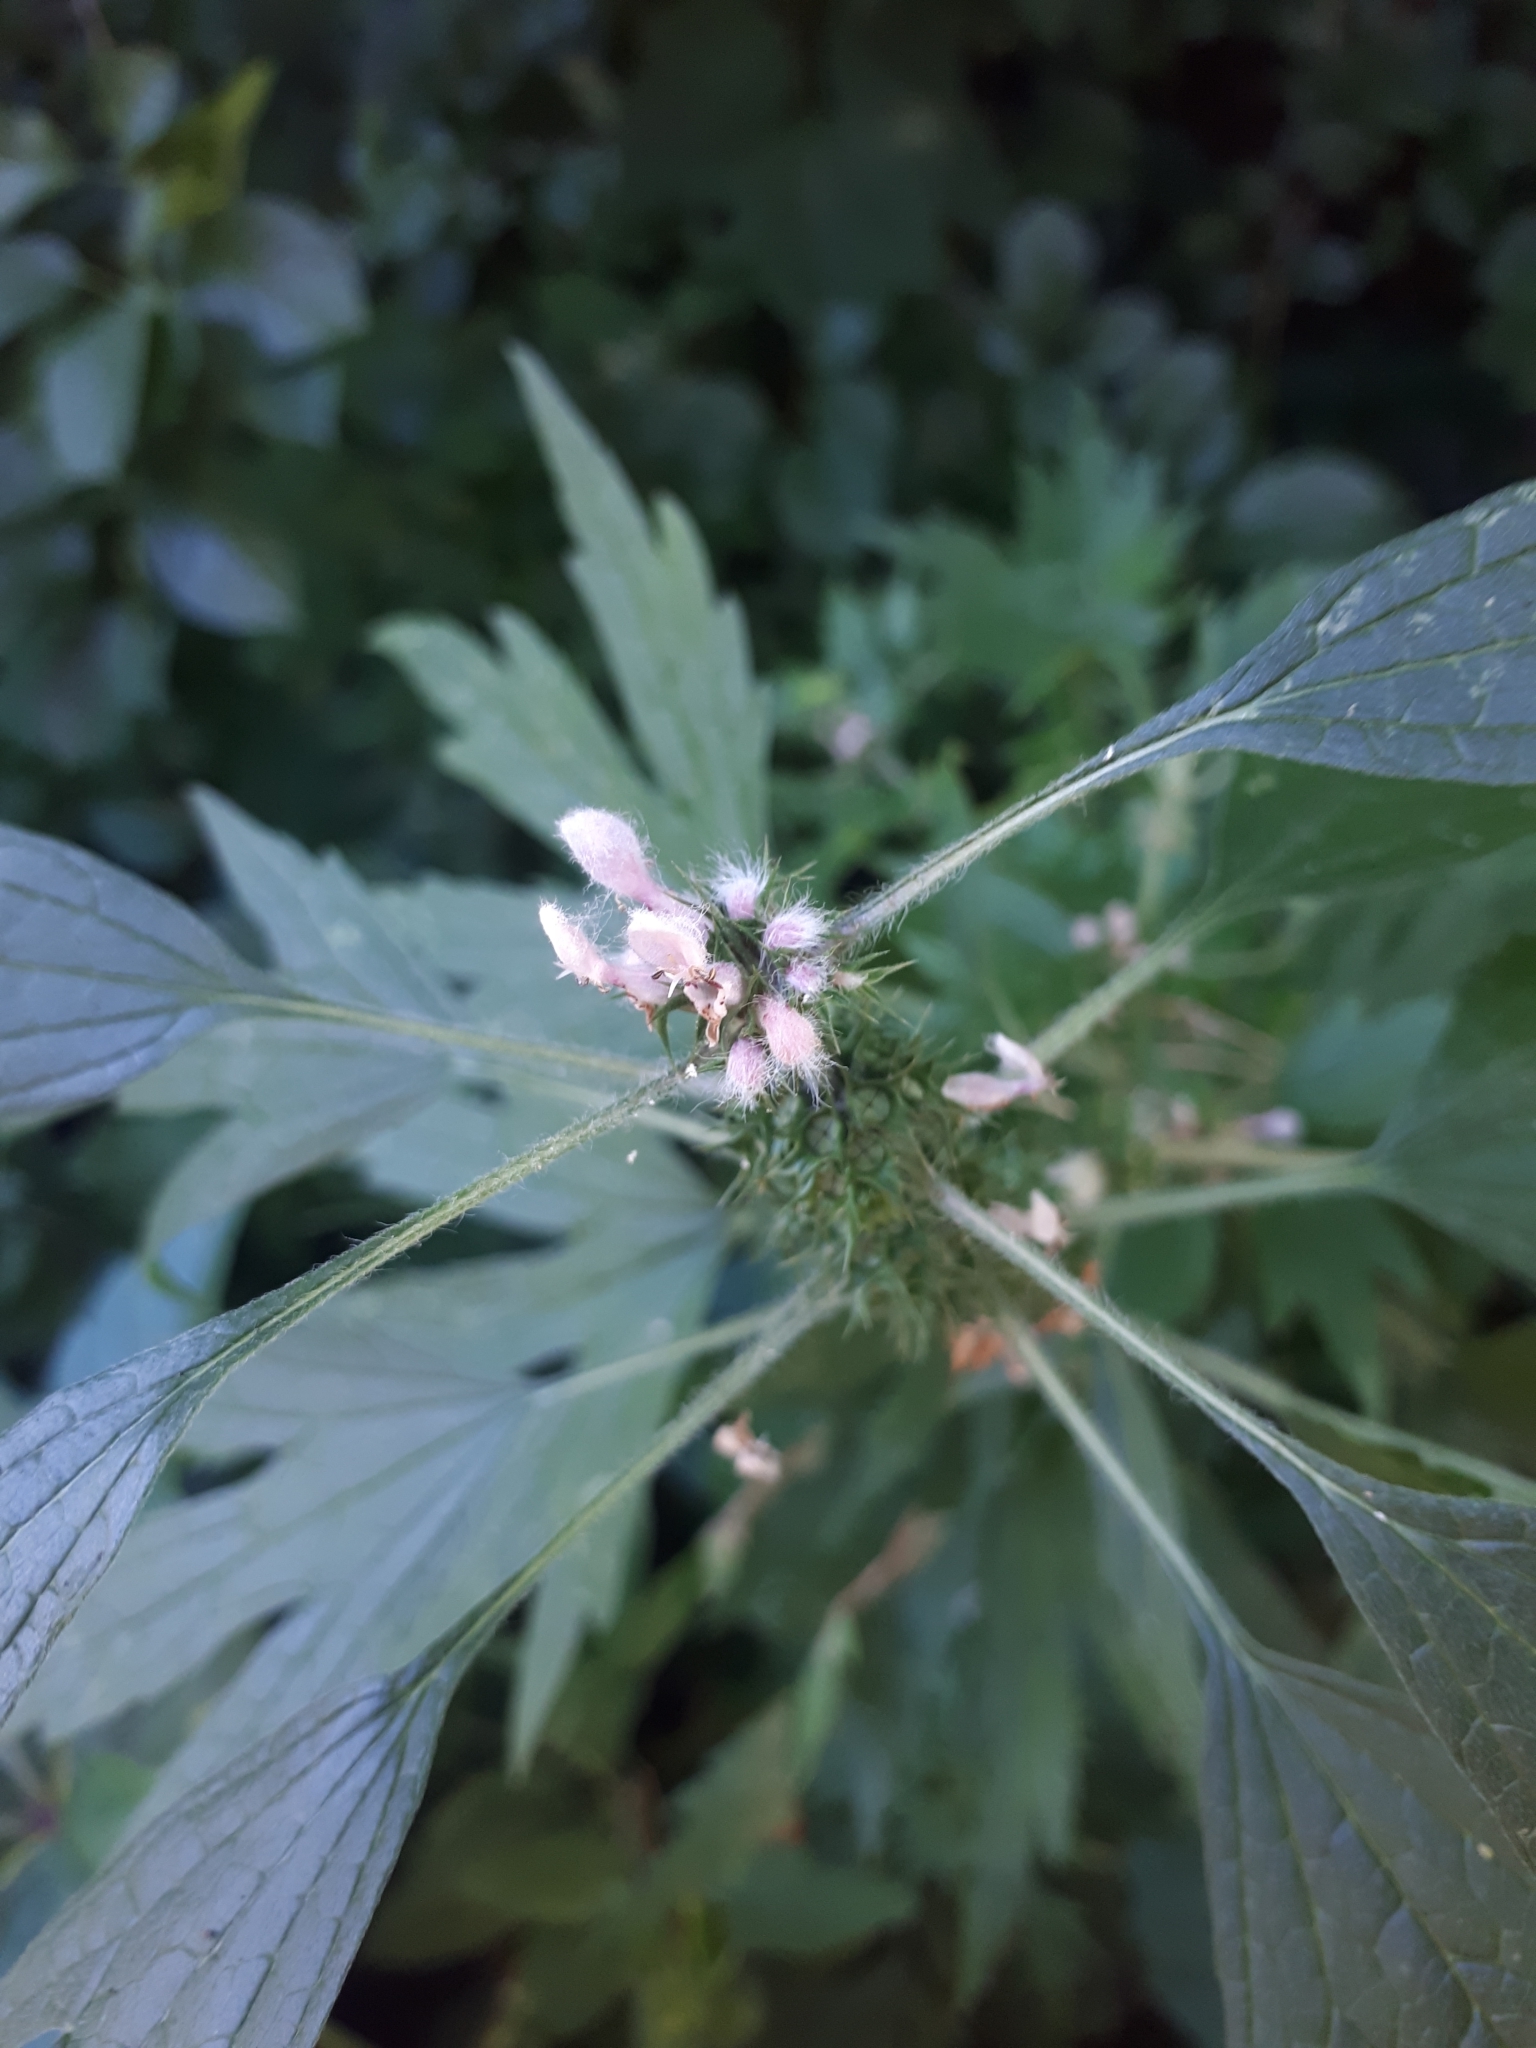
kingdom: Plantae
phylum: Tracheophyta
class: Magnoliopsida
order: Lamiales
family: Lamiaceae
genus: Leonurus
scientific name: Leonurus quinquelobatus
